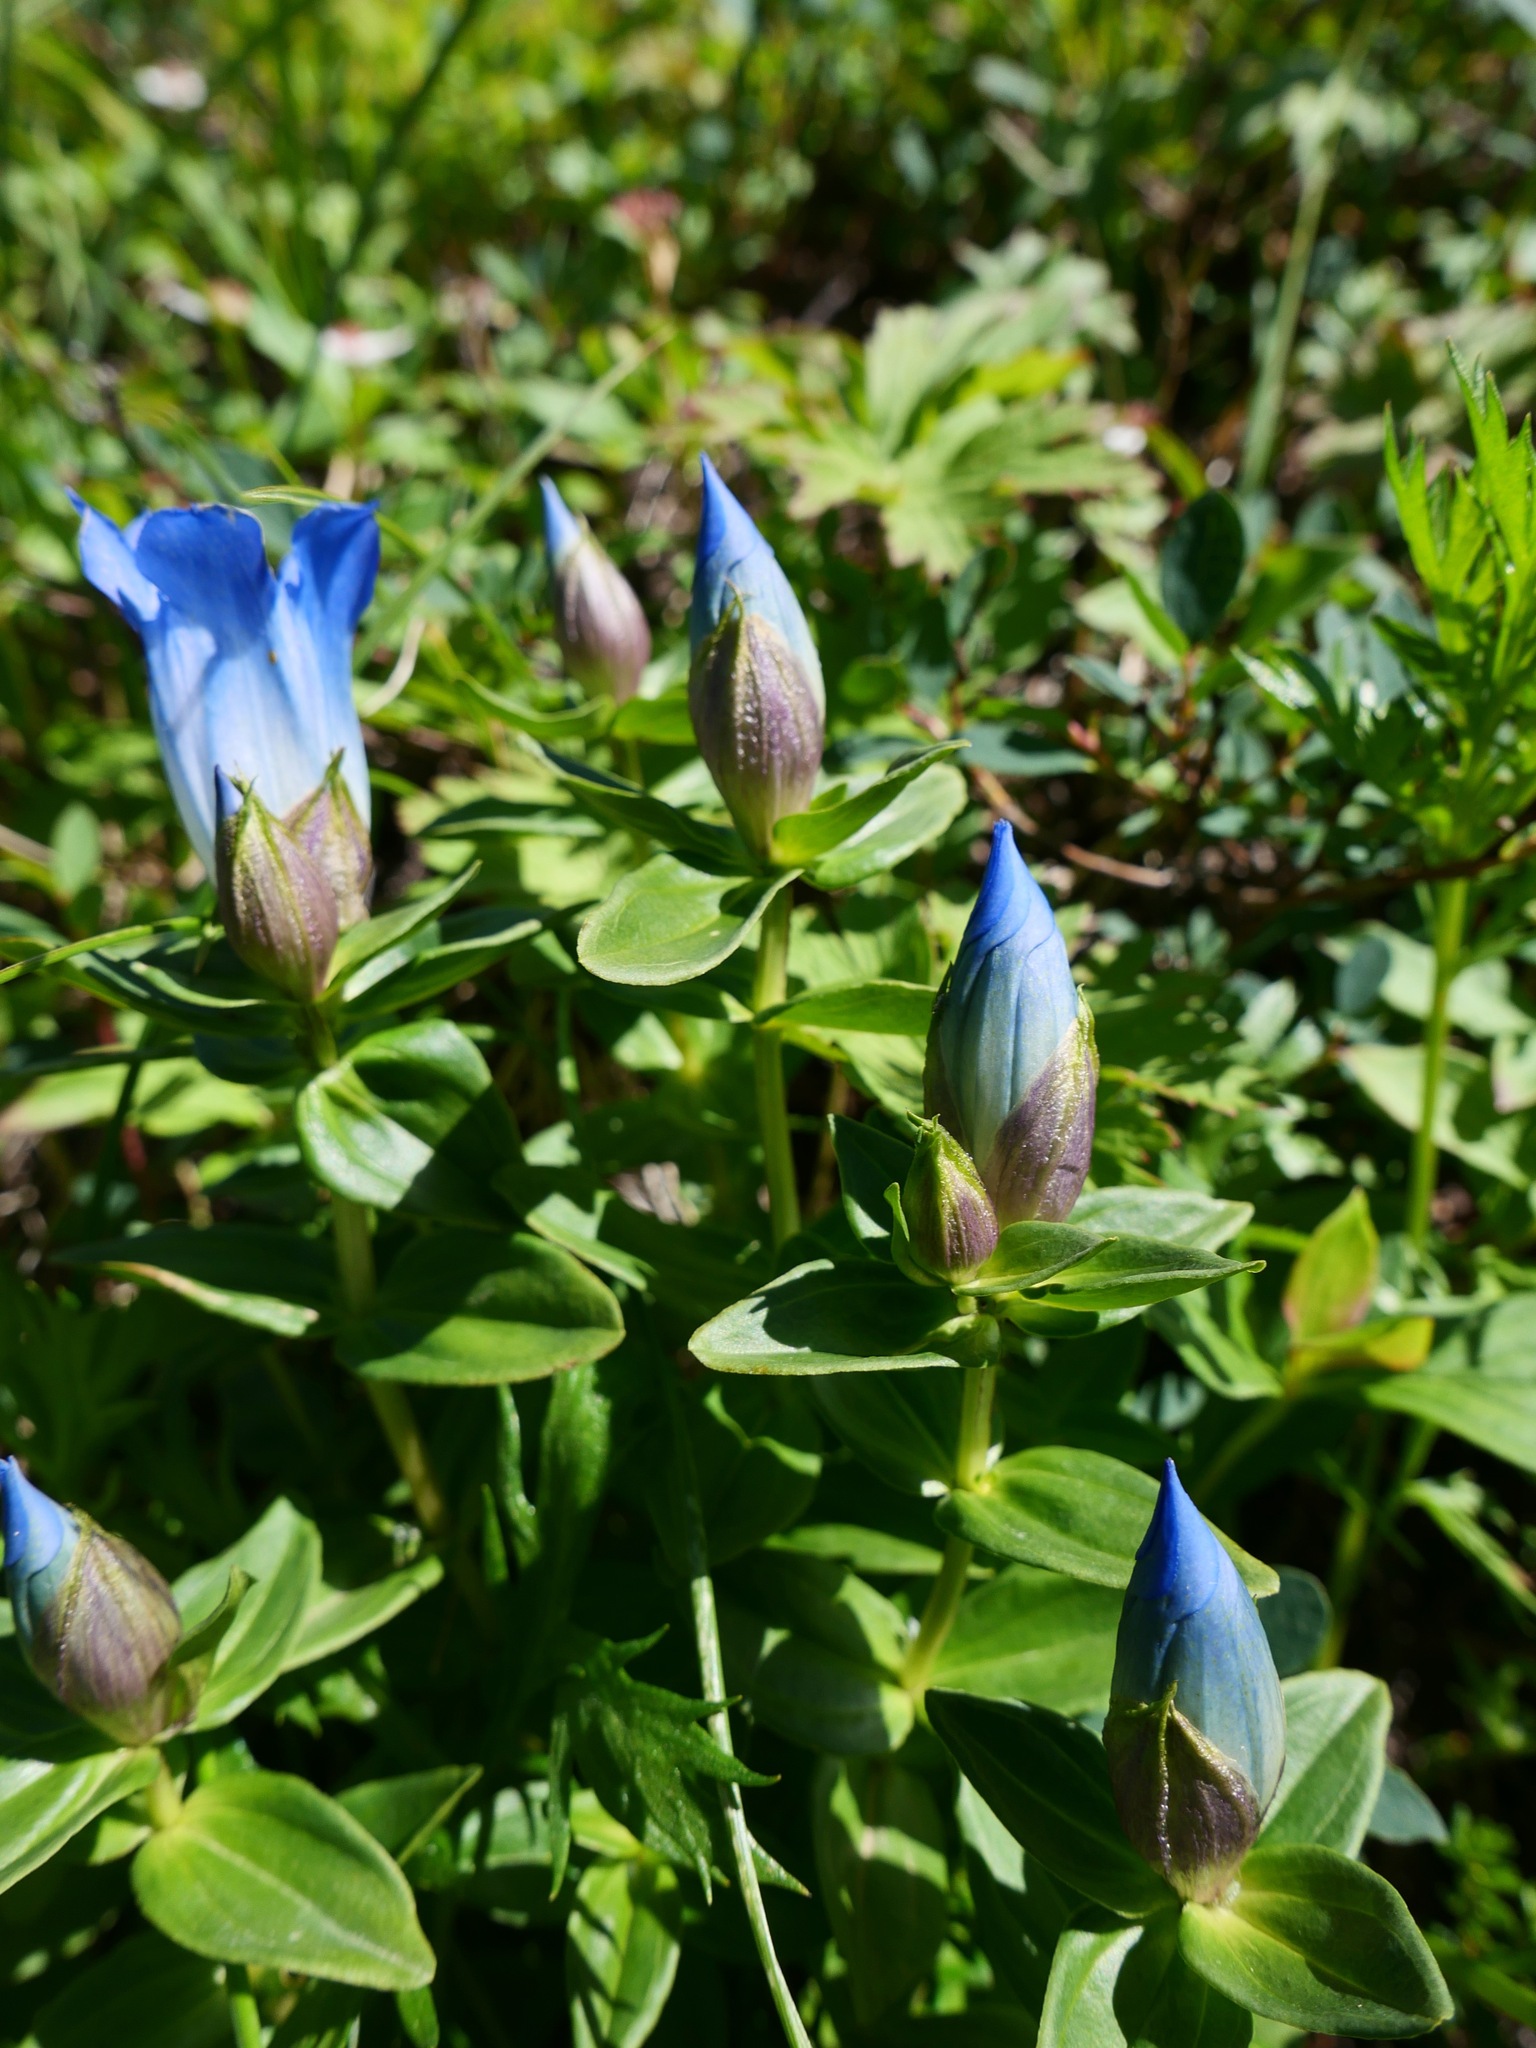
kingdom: Plantae
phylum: Tracheophyta
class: Magnoliopsida
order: Gentianales
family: Gentianaceae
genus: Gentiana
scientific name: Gentiana platypetala
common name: Broad-petalled gentian
